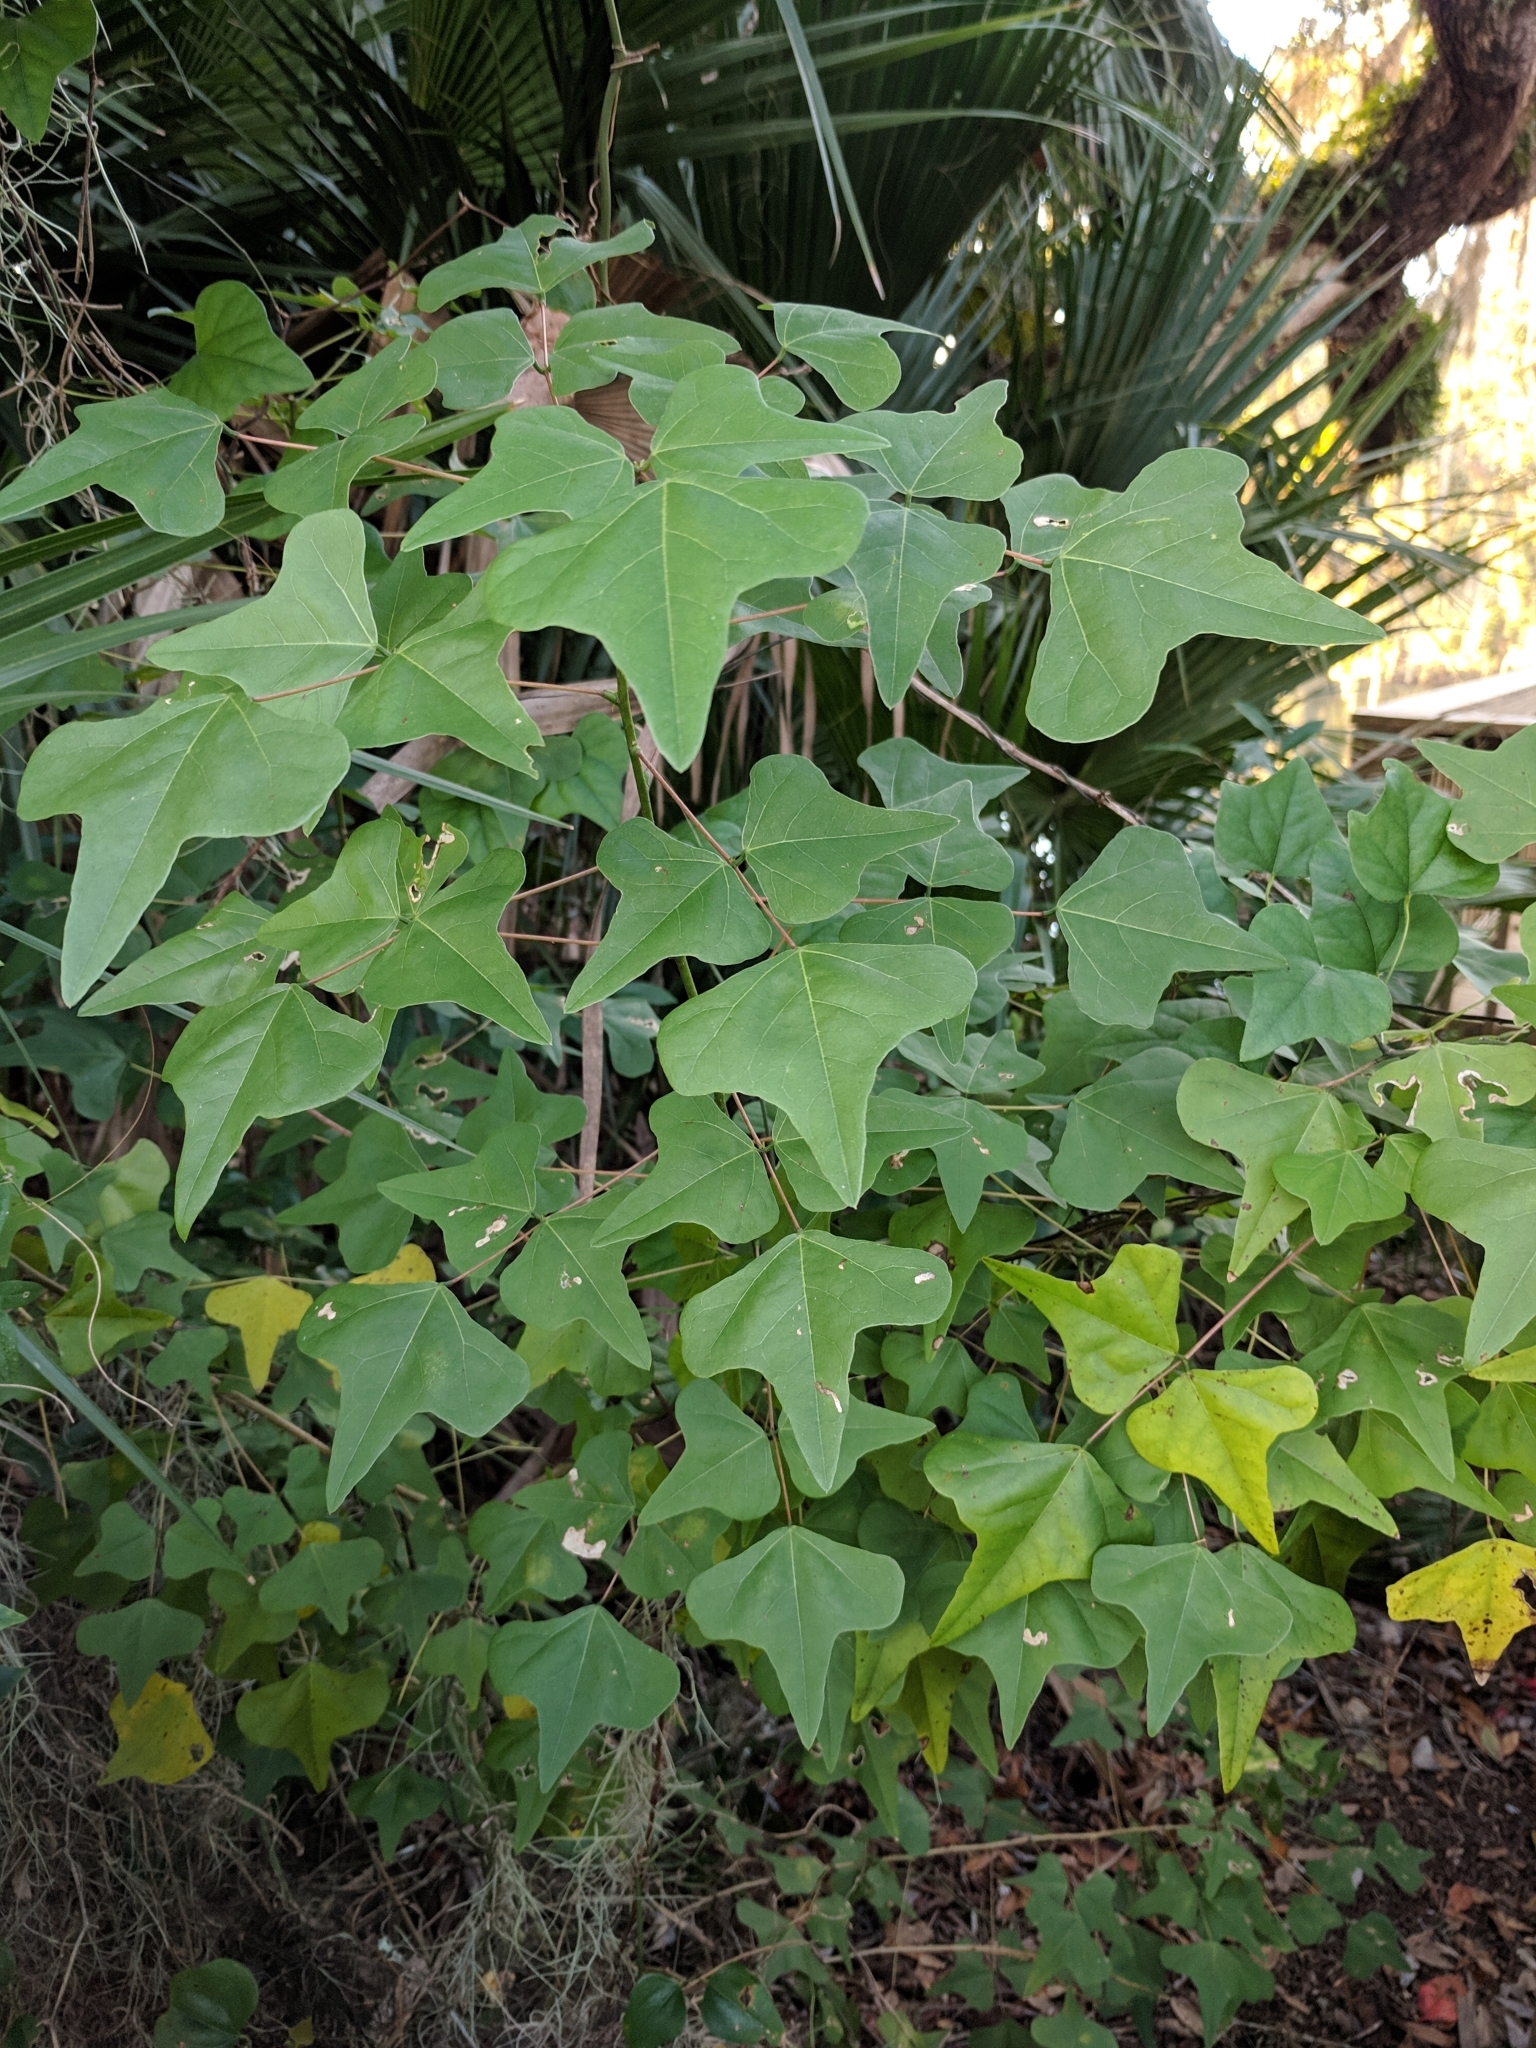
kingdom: Plantae
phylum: Tracheophyta
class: Magnoliopsida
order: Fabales
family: Fabaceae
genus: Erythrina
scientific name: Erythrina herbacea
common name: Coral-bean
